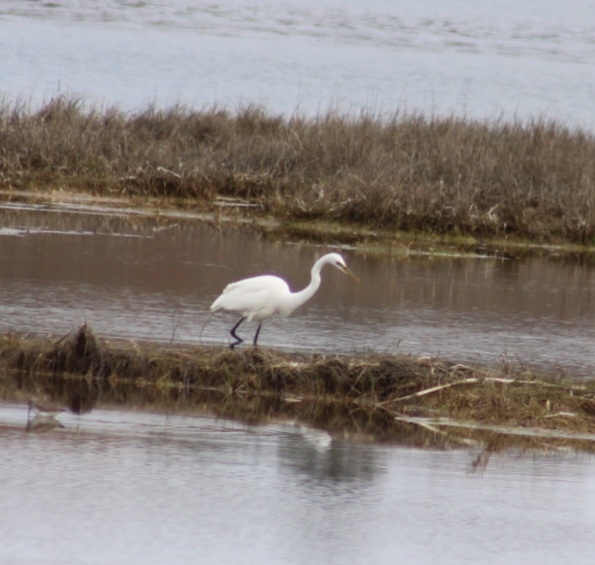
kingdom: Animalia
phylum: Chordata
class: Aves
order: Pelecaniformes
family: Ardeidae
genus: Ardea
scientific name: Ardea alba
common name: Great egret
